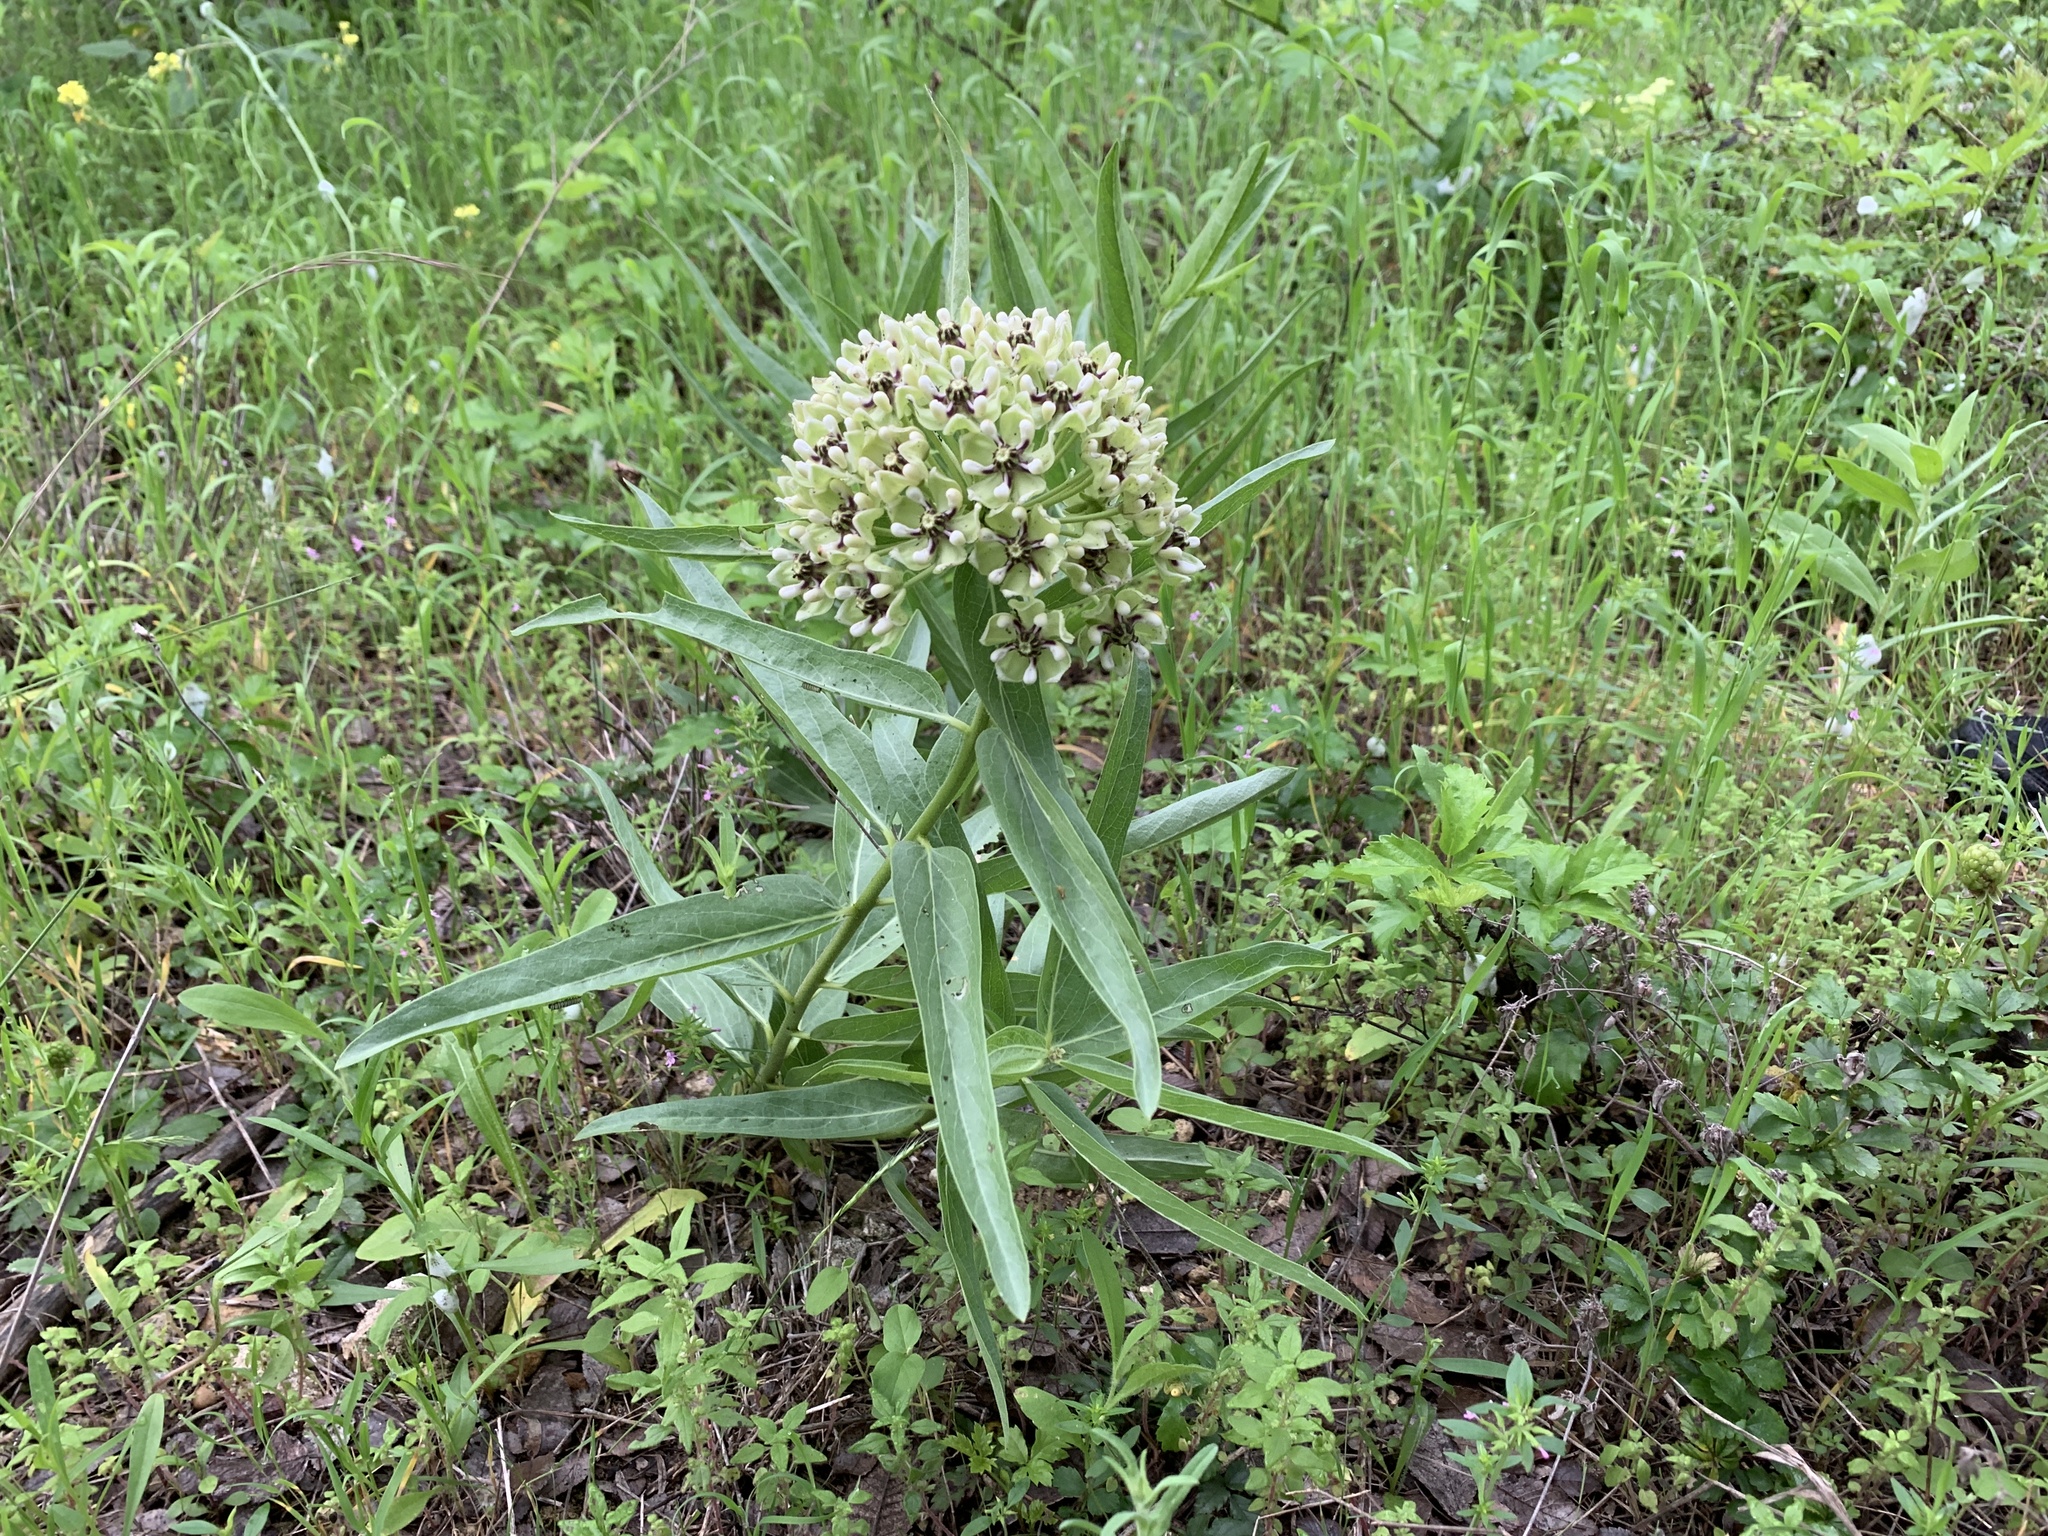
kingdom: Plantae
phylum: Tracheophyta
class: Magnoliopsida
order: Gentianales
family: Apocynaceae
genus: Asclepias
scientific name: Asclepias asperula
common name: Antelope horns
